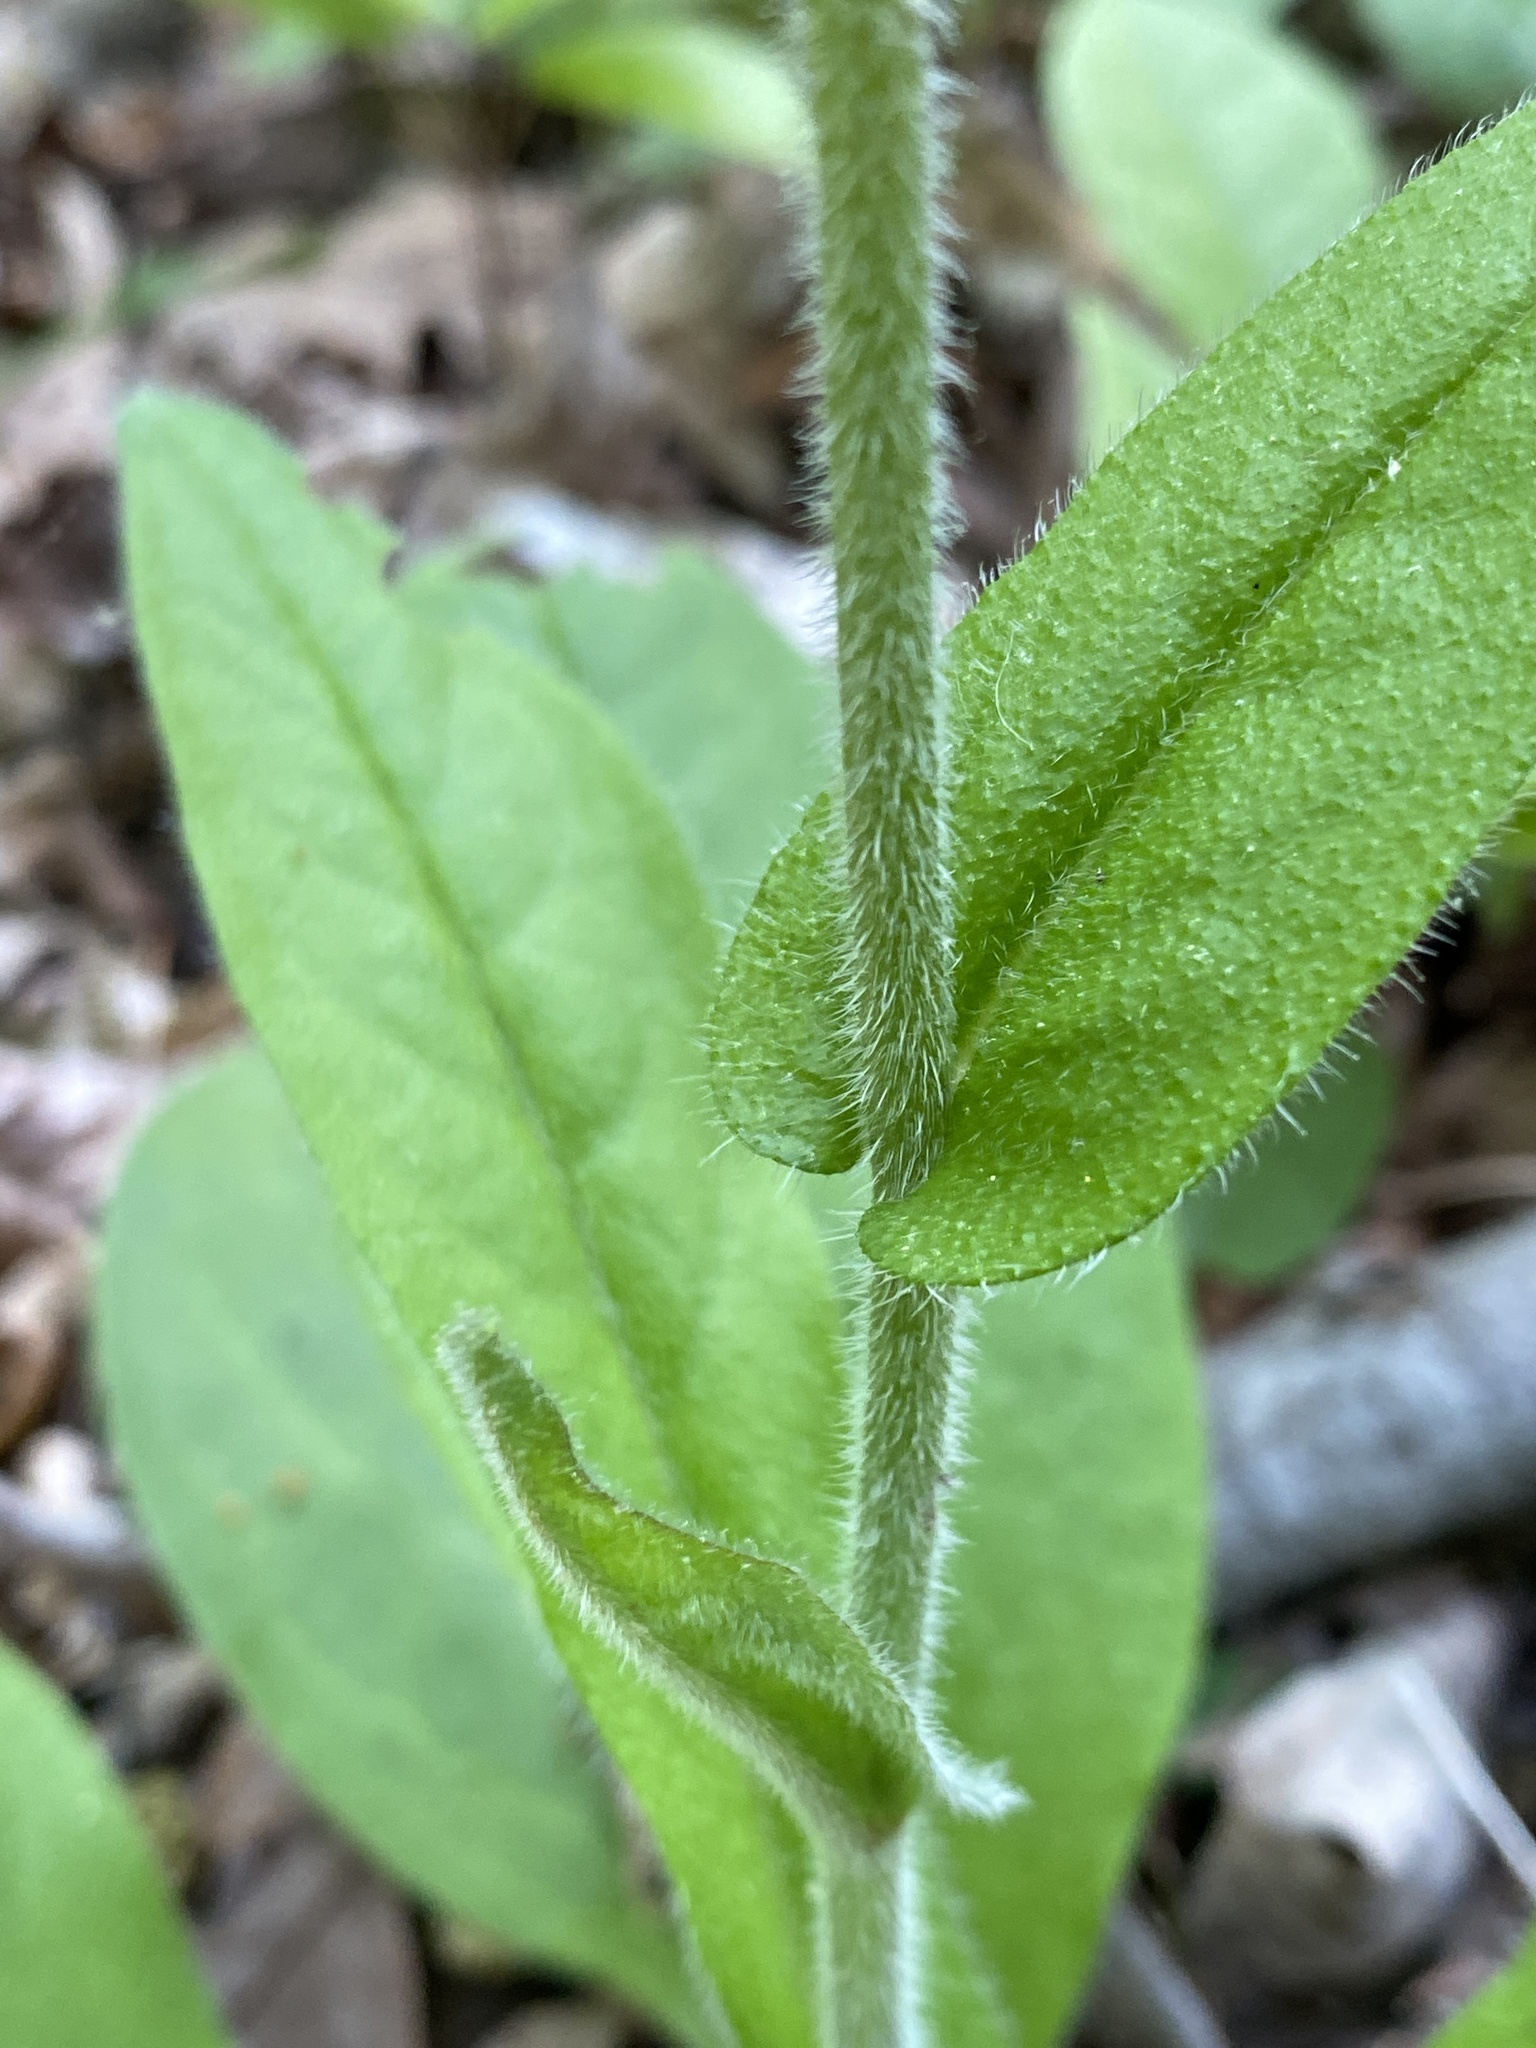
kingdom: Plantae
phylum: Tracheophyta
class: Magnoliopsida
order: Boraginales
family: Boraginaceae
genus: Andersonglossum
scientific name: Andersonglossum virginianum
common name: Wild comfrey
